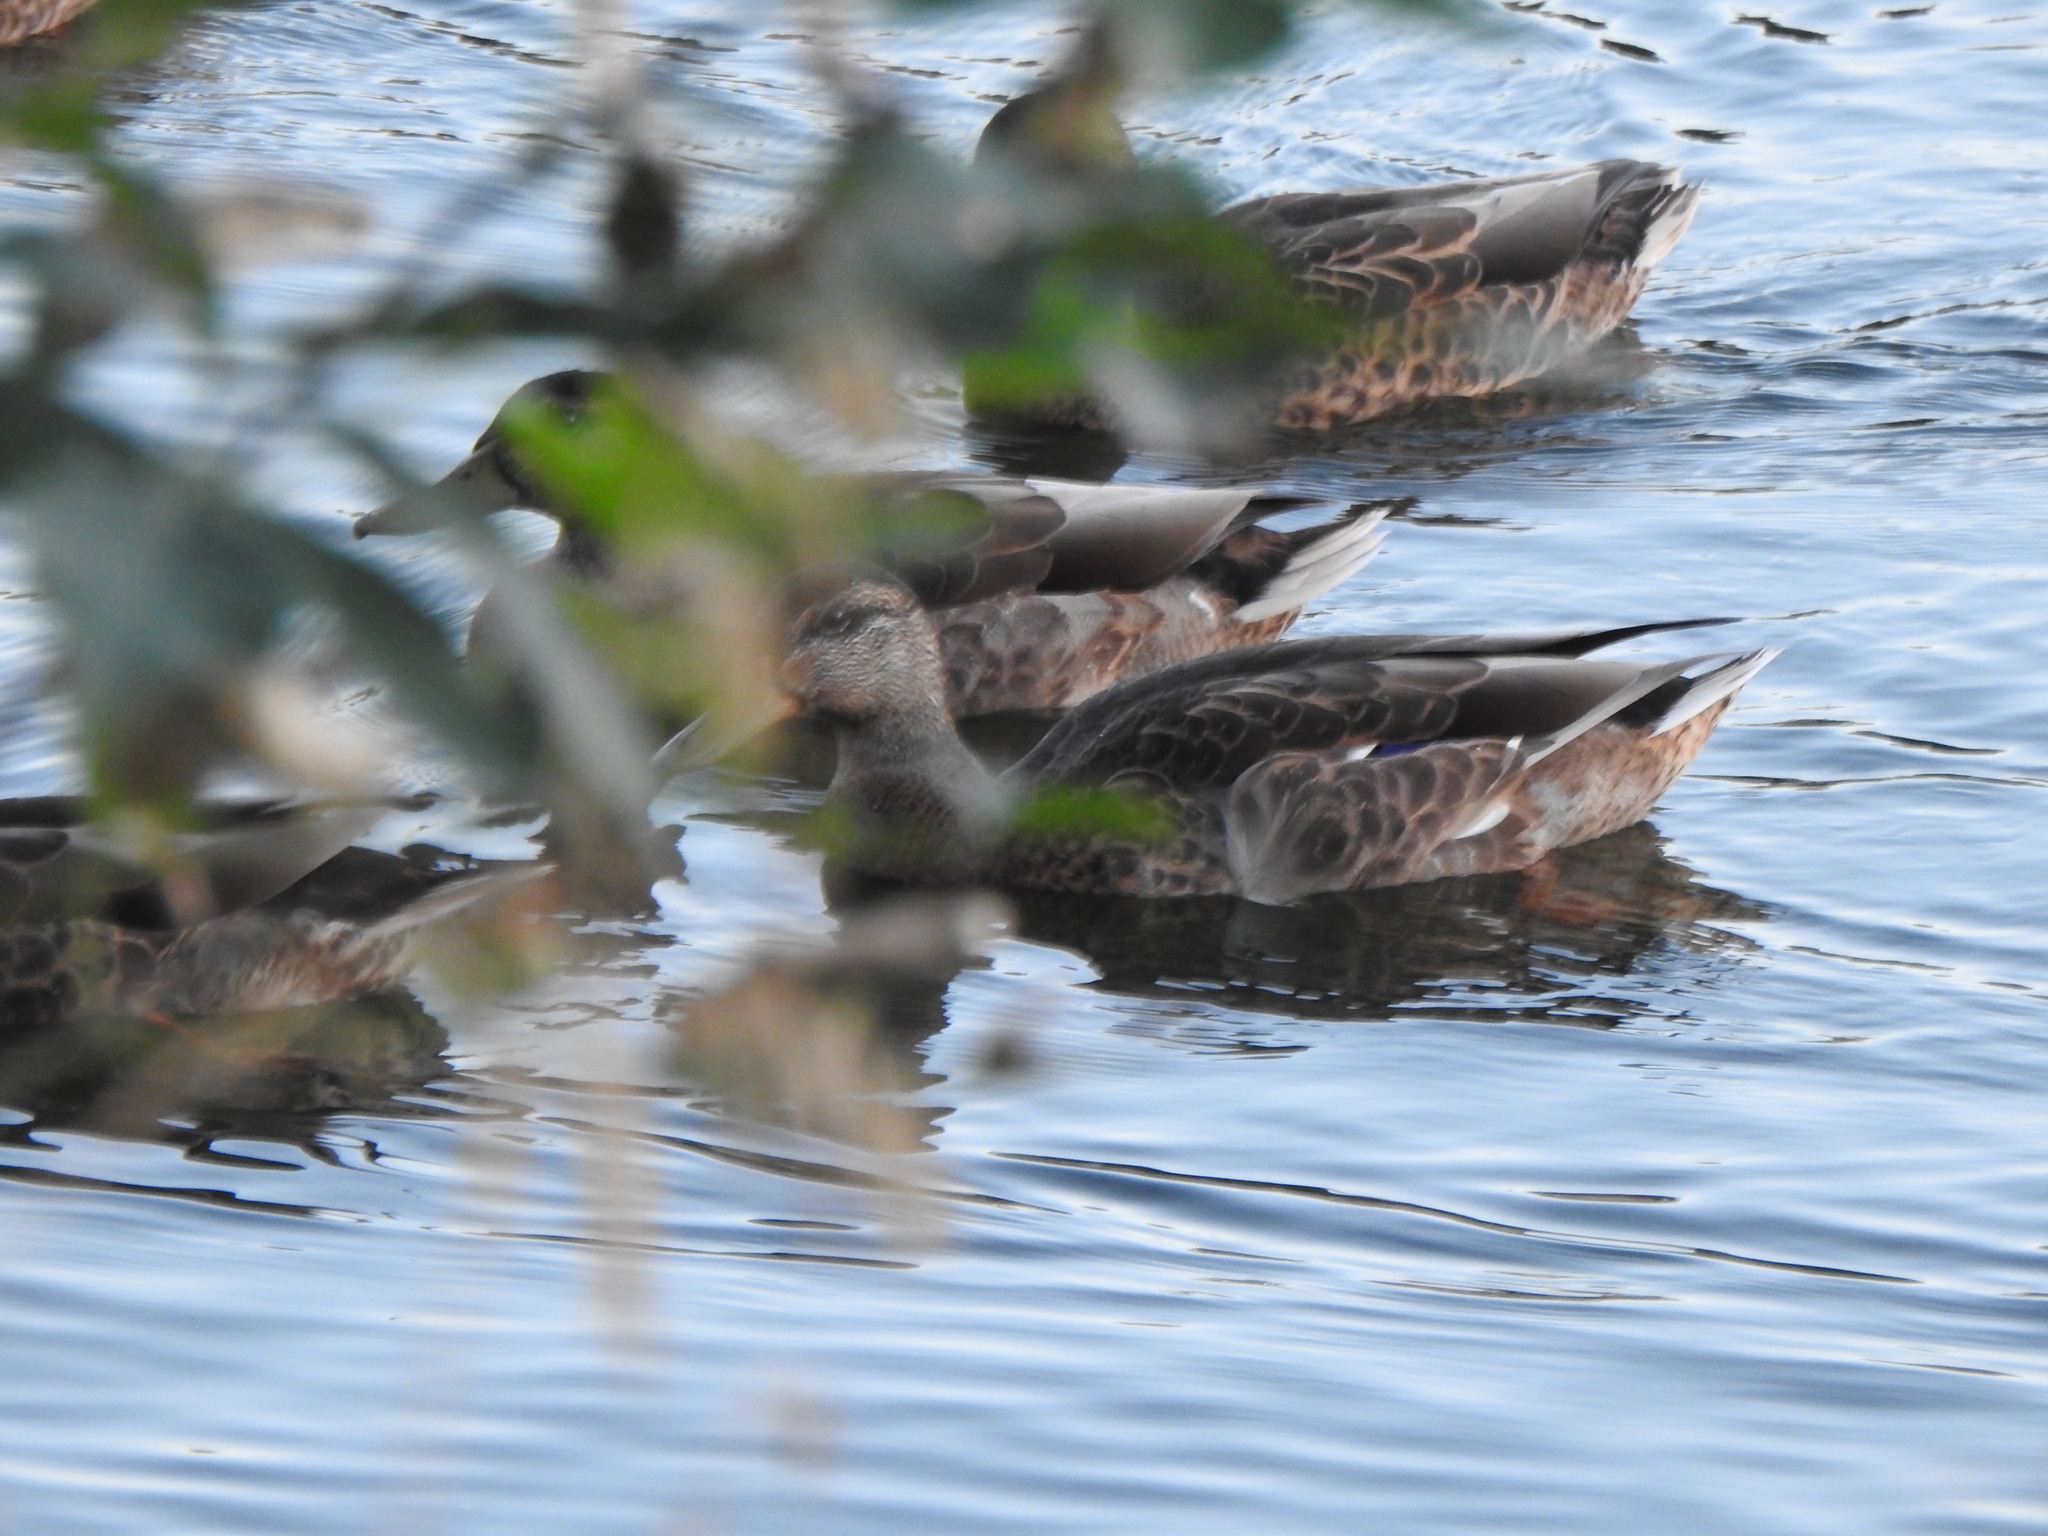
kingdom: Animalia
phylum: Chordata
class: Aves
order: Anseriformes
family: Anatidae
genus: Anas
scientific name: Anas platyrhynchos
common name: Mallard
